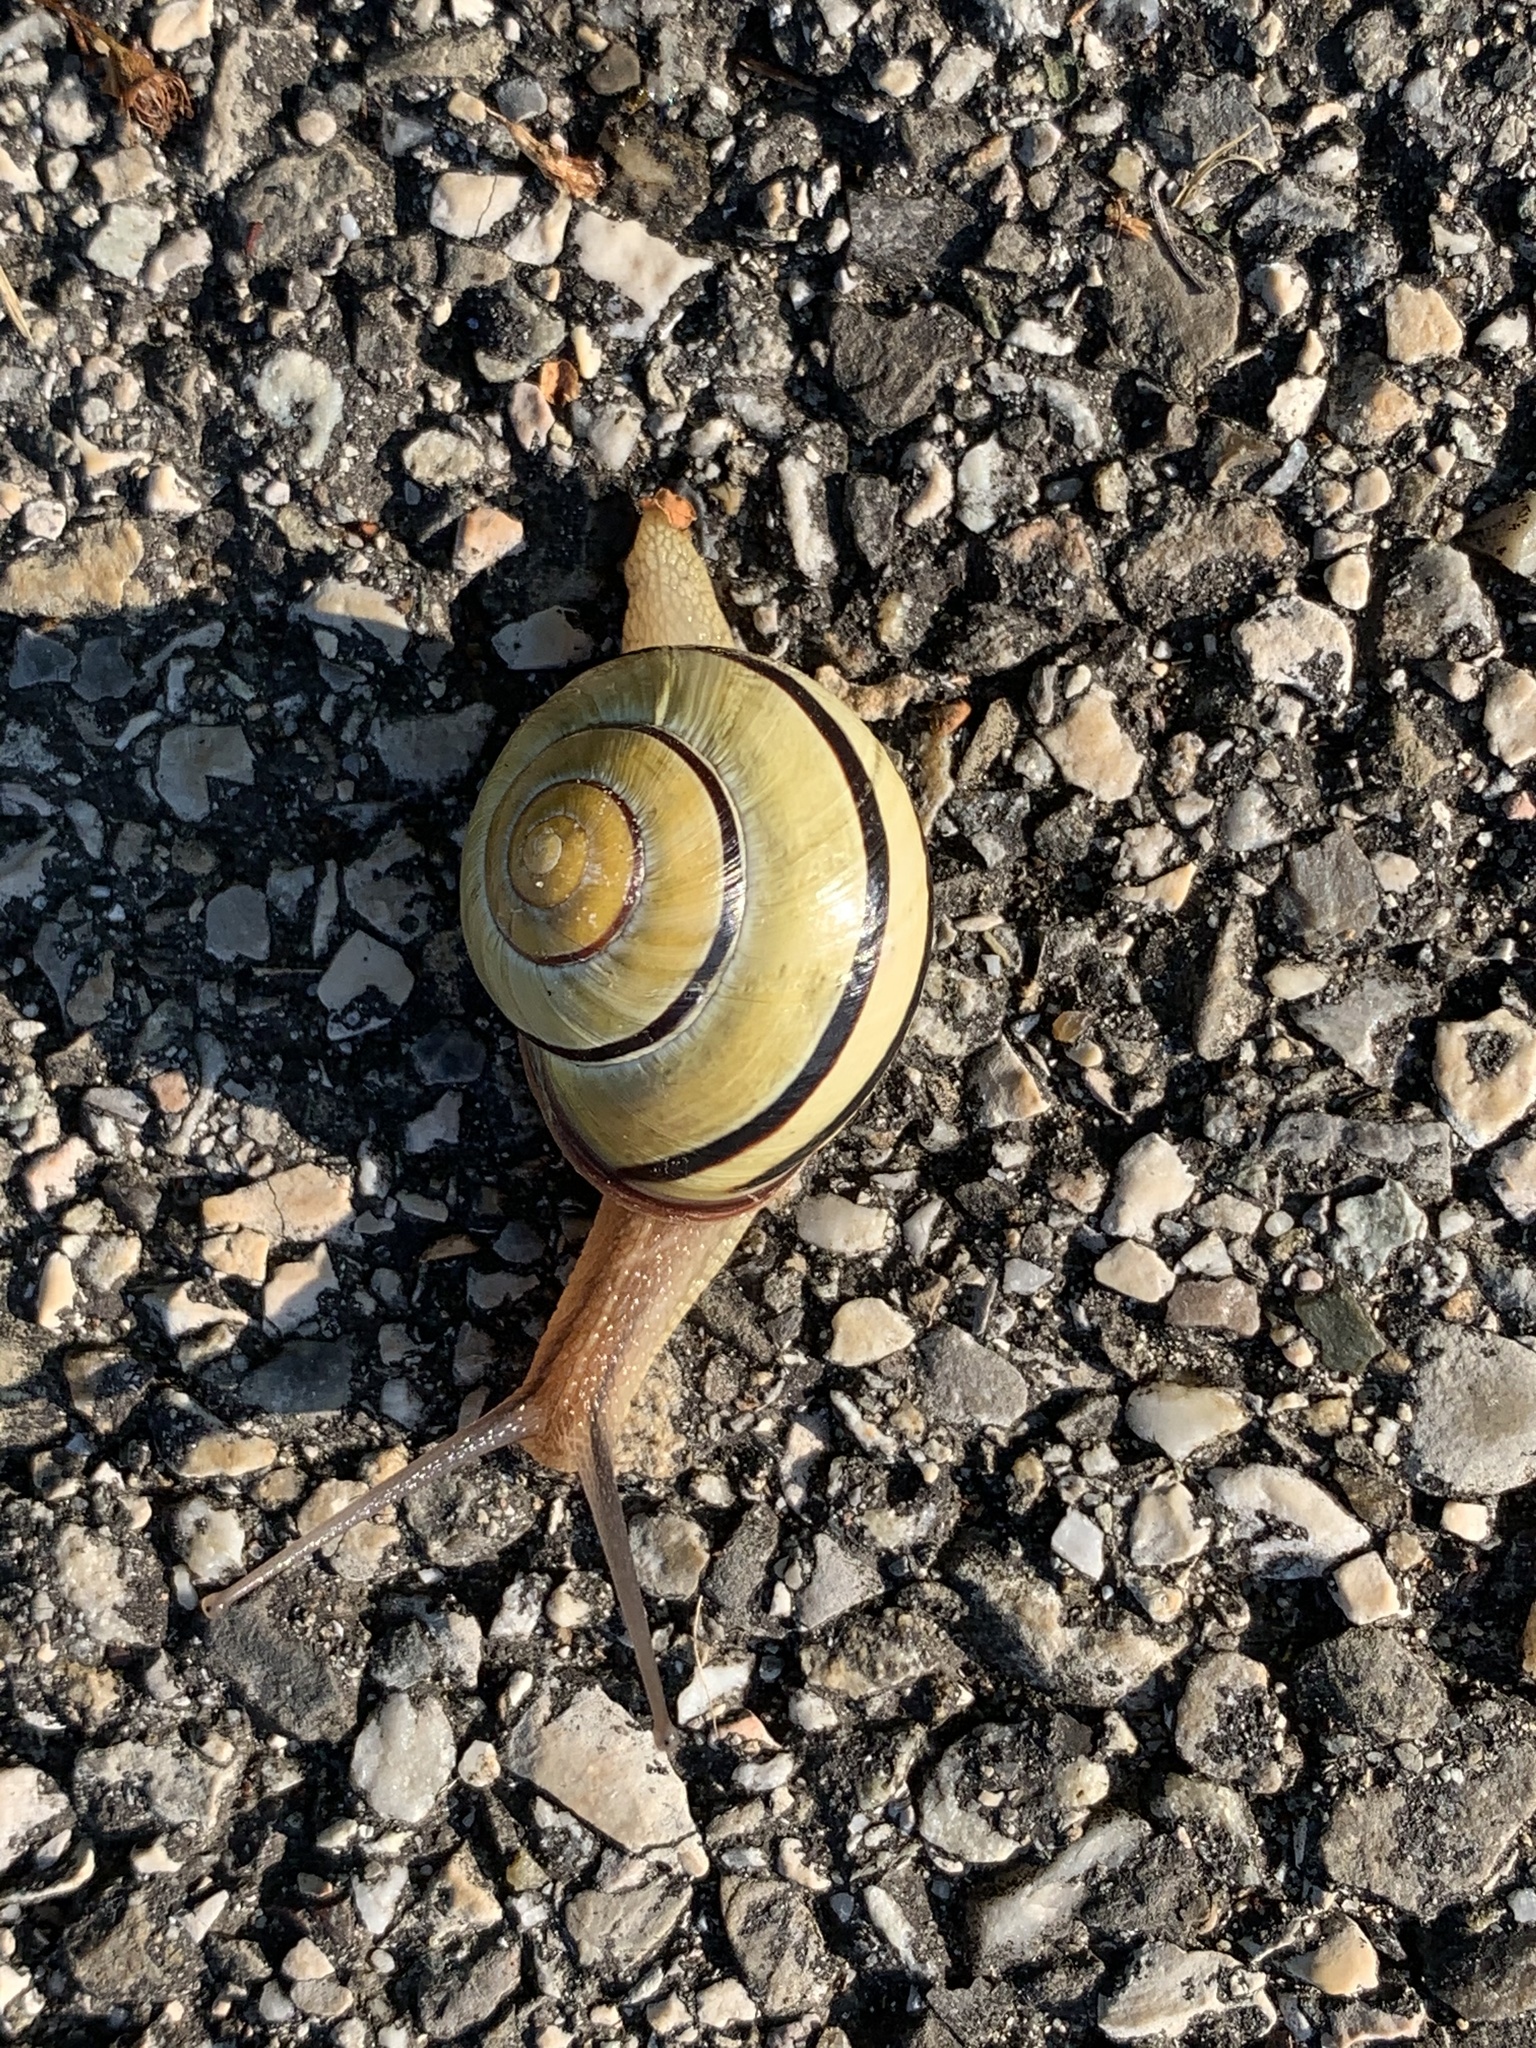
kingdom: Animalia
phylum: Mollusca
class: Gastropoda
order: Stylommatophora
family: Helicidae
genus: Cepaea
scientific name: Cepaea nemoralis
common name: Grovesnail
